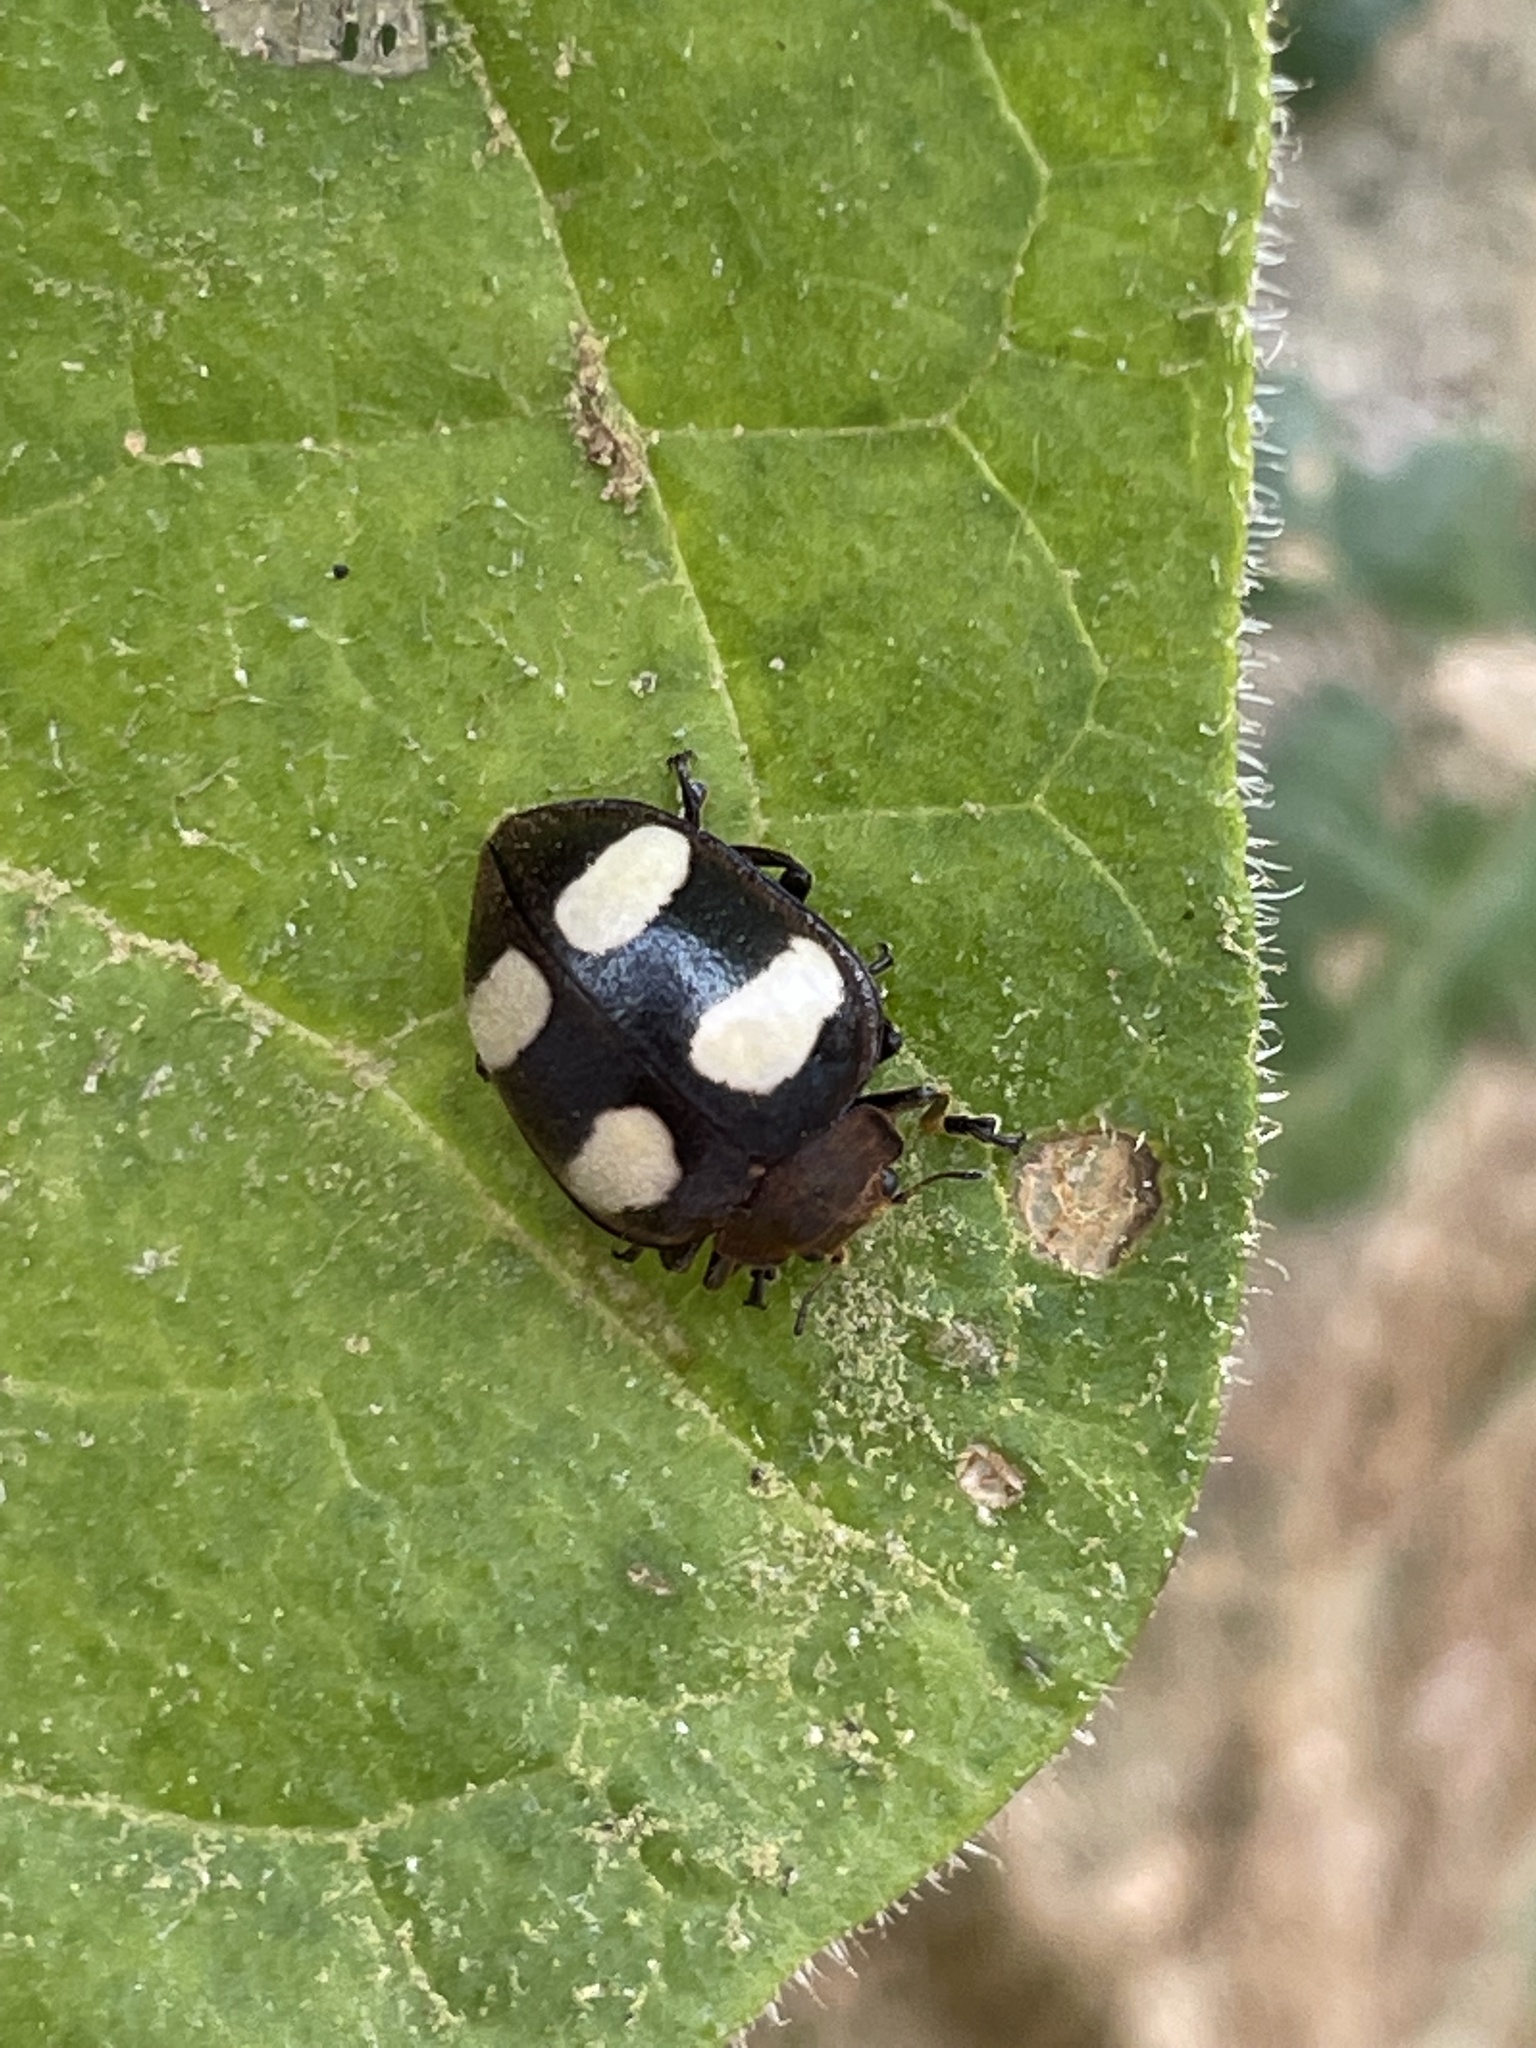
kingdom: Animalia
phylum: Arthropoda
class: Insecta
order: Coleoptera
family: Coccinellidae
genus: Epilachna
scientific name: Epilachna
